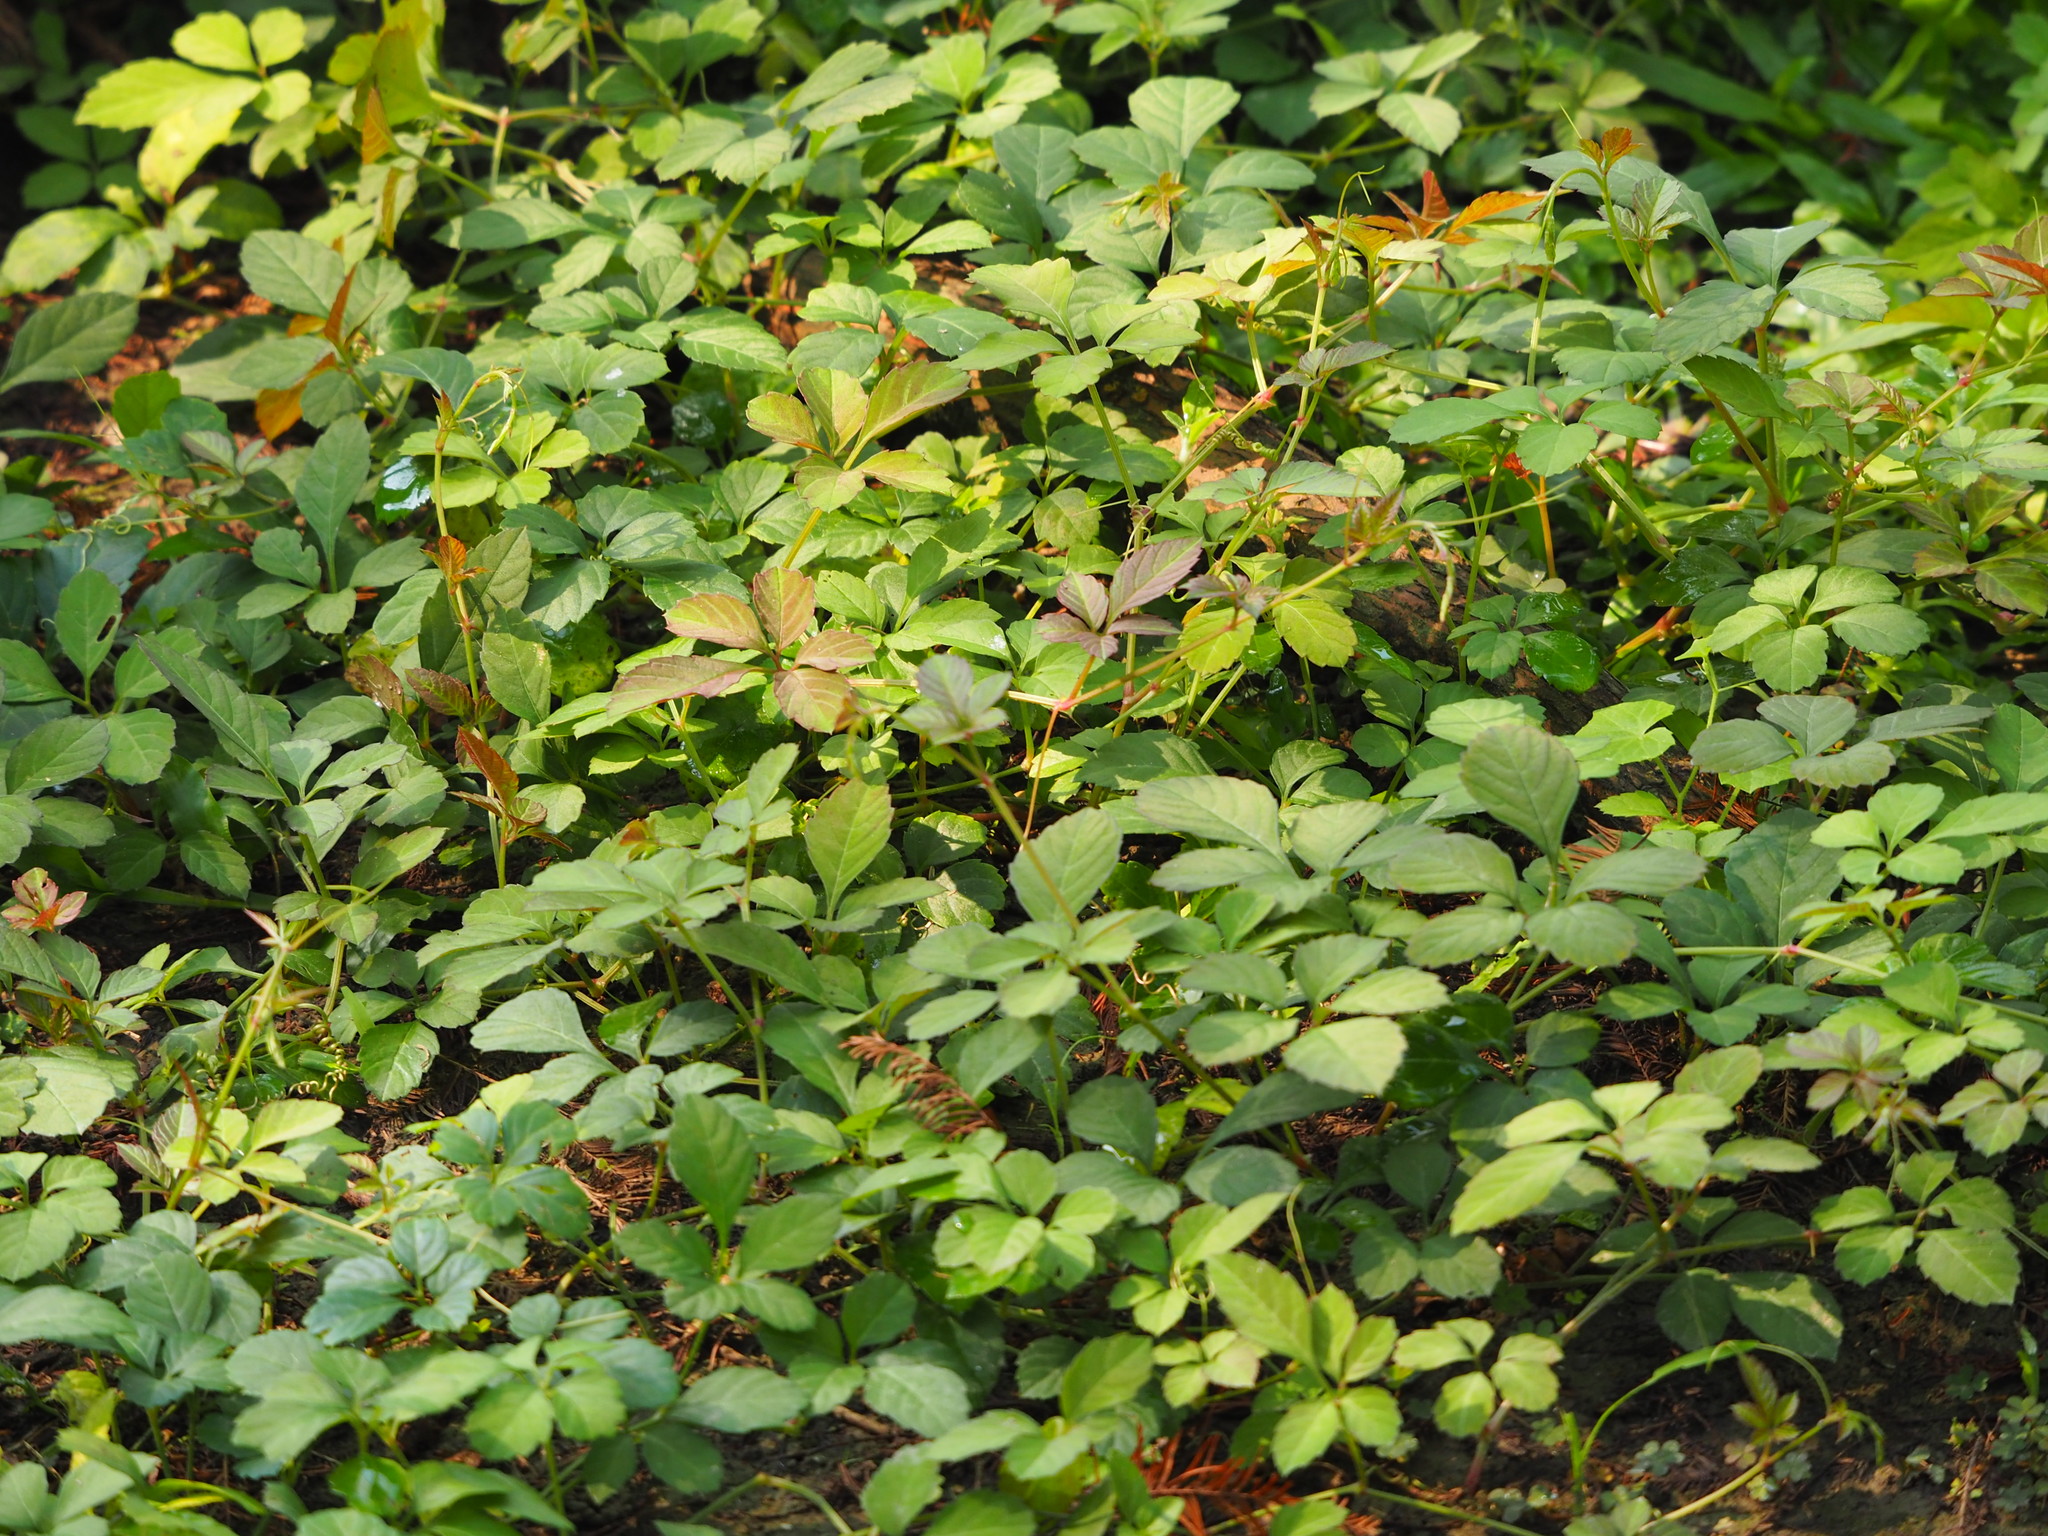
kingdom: Plantae
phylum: Tracheophyta
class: Magnoliopsida
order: Vitales
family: Vitaceae
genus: Causonis
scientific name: Causonis japonica
